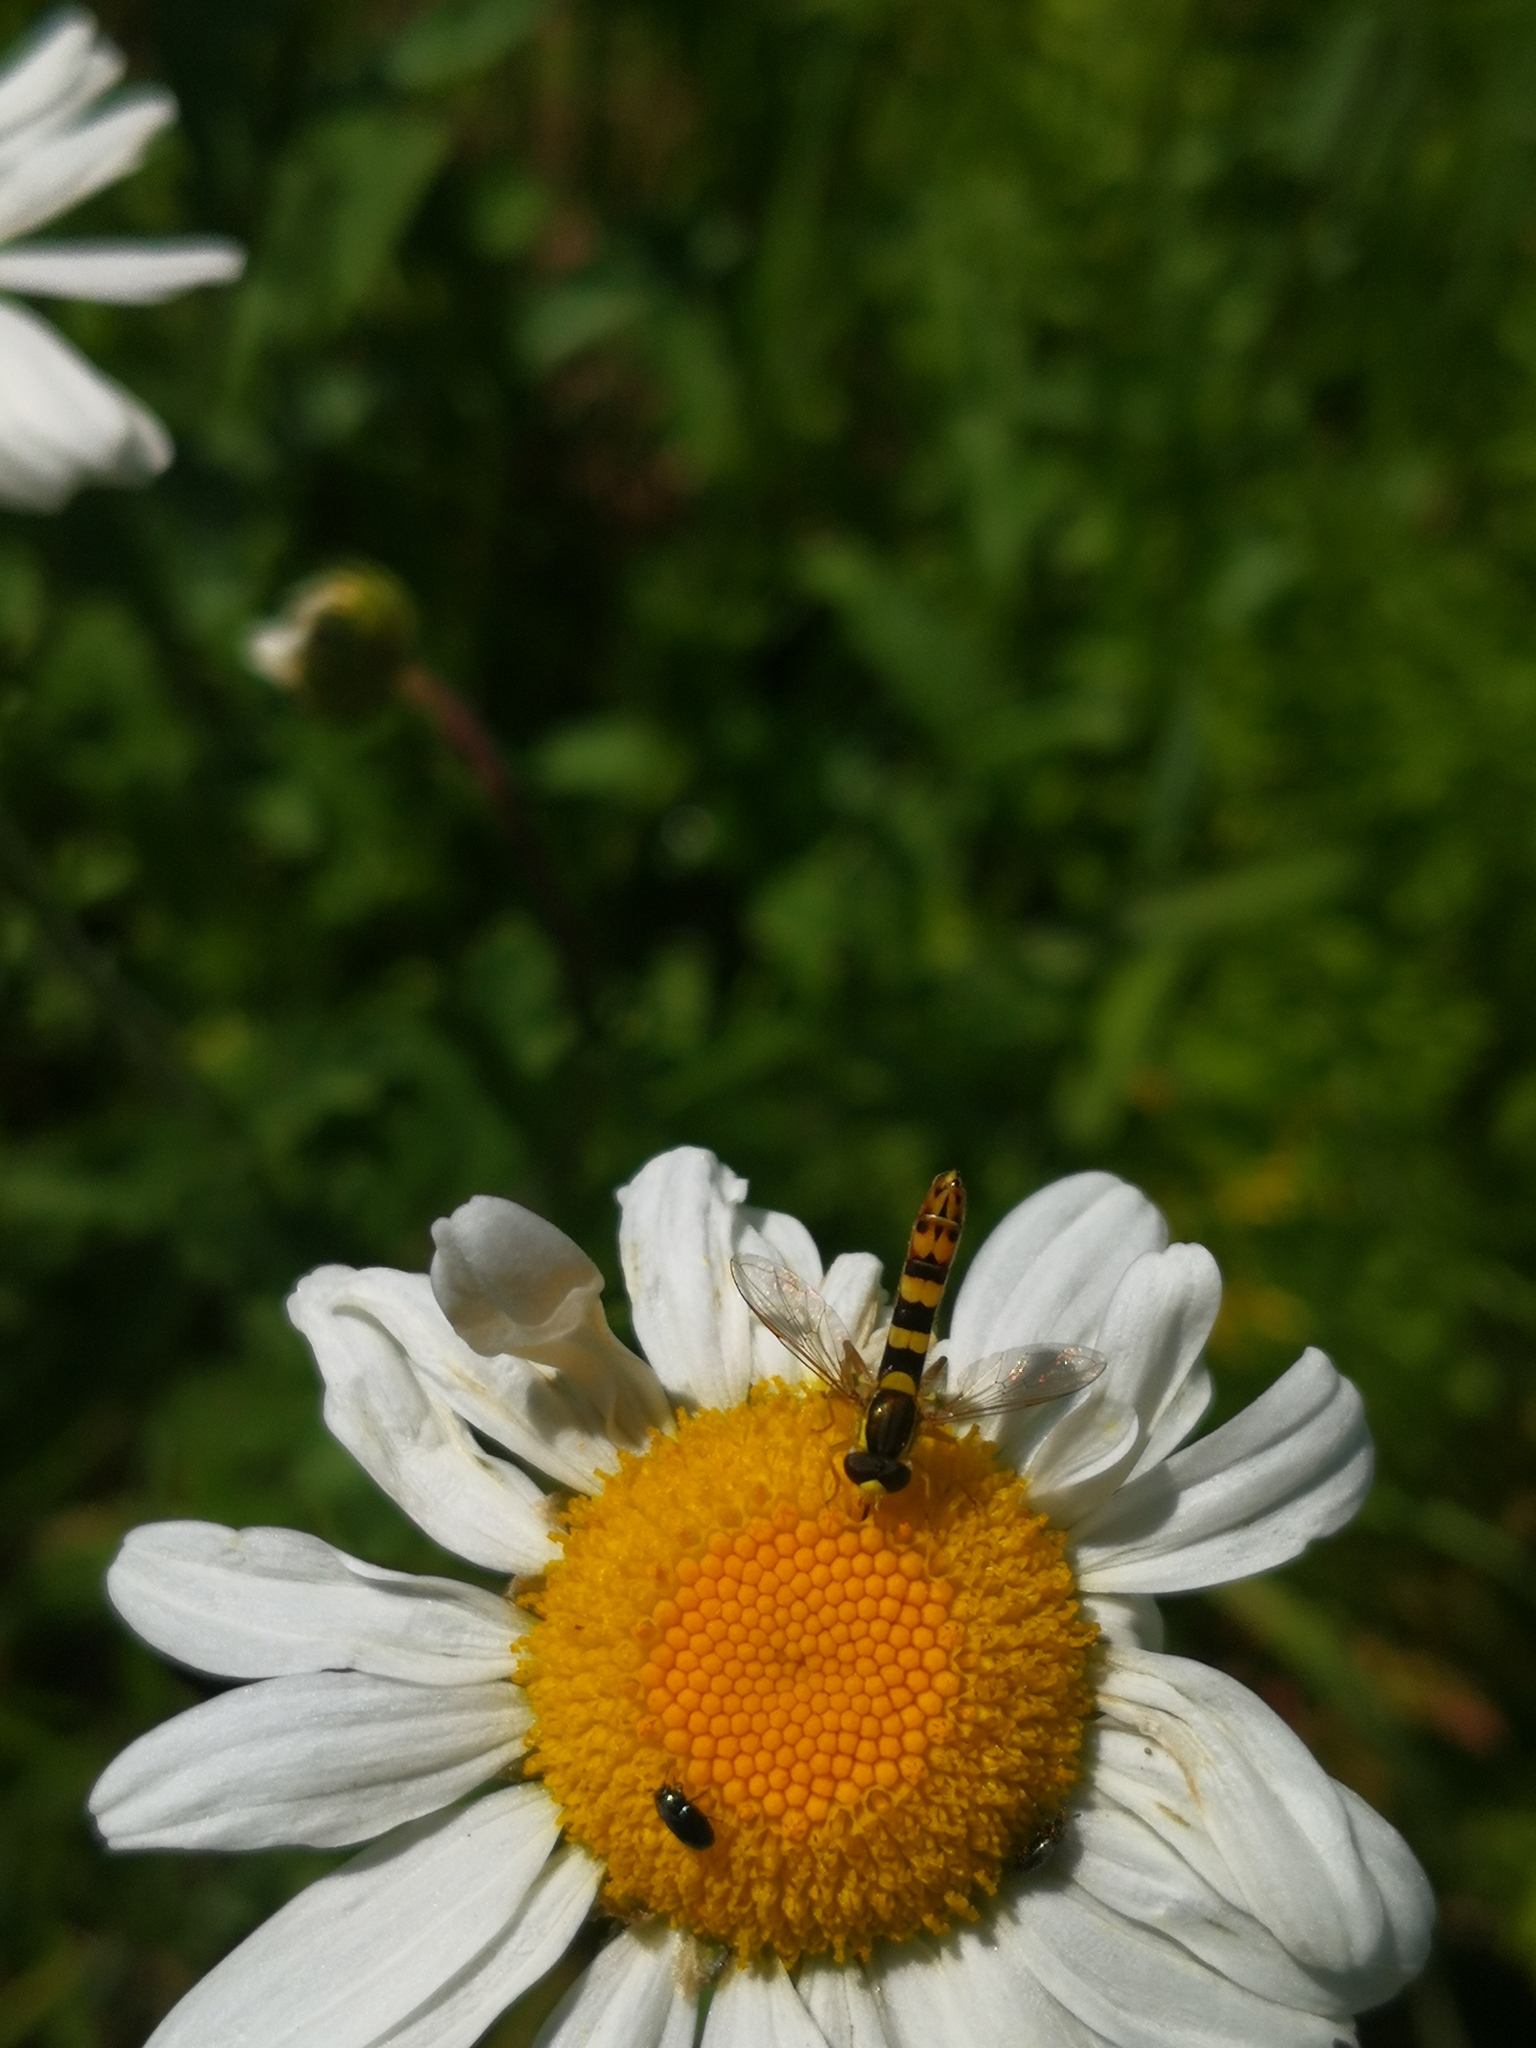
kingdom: Animalia
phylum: Arthropoda
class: Insecta
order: Diptera
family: Syrphidae
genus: Sphaerophoria
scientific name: Sphaerophoria scripta
